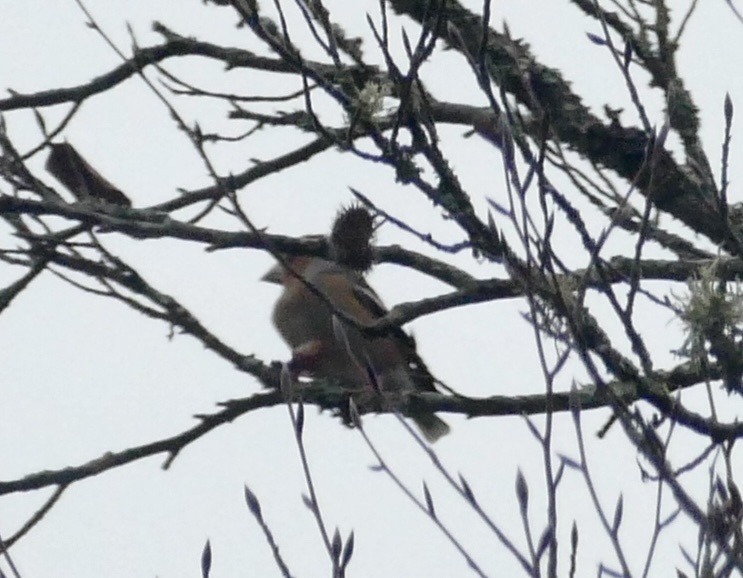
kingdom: Animalia
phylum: Chordata
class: Aves
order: Passeriformes
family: Fringillidae
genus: Coccothraustes
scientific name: Coccothraustes coccothraustes
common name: Hawfinch
